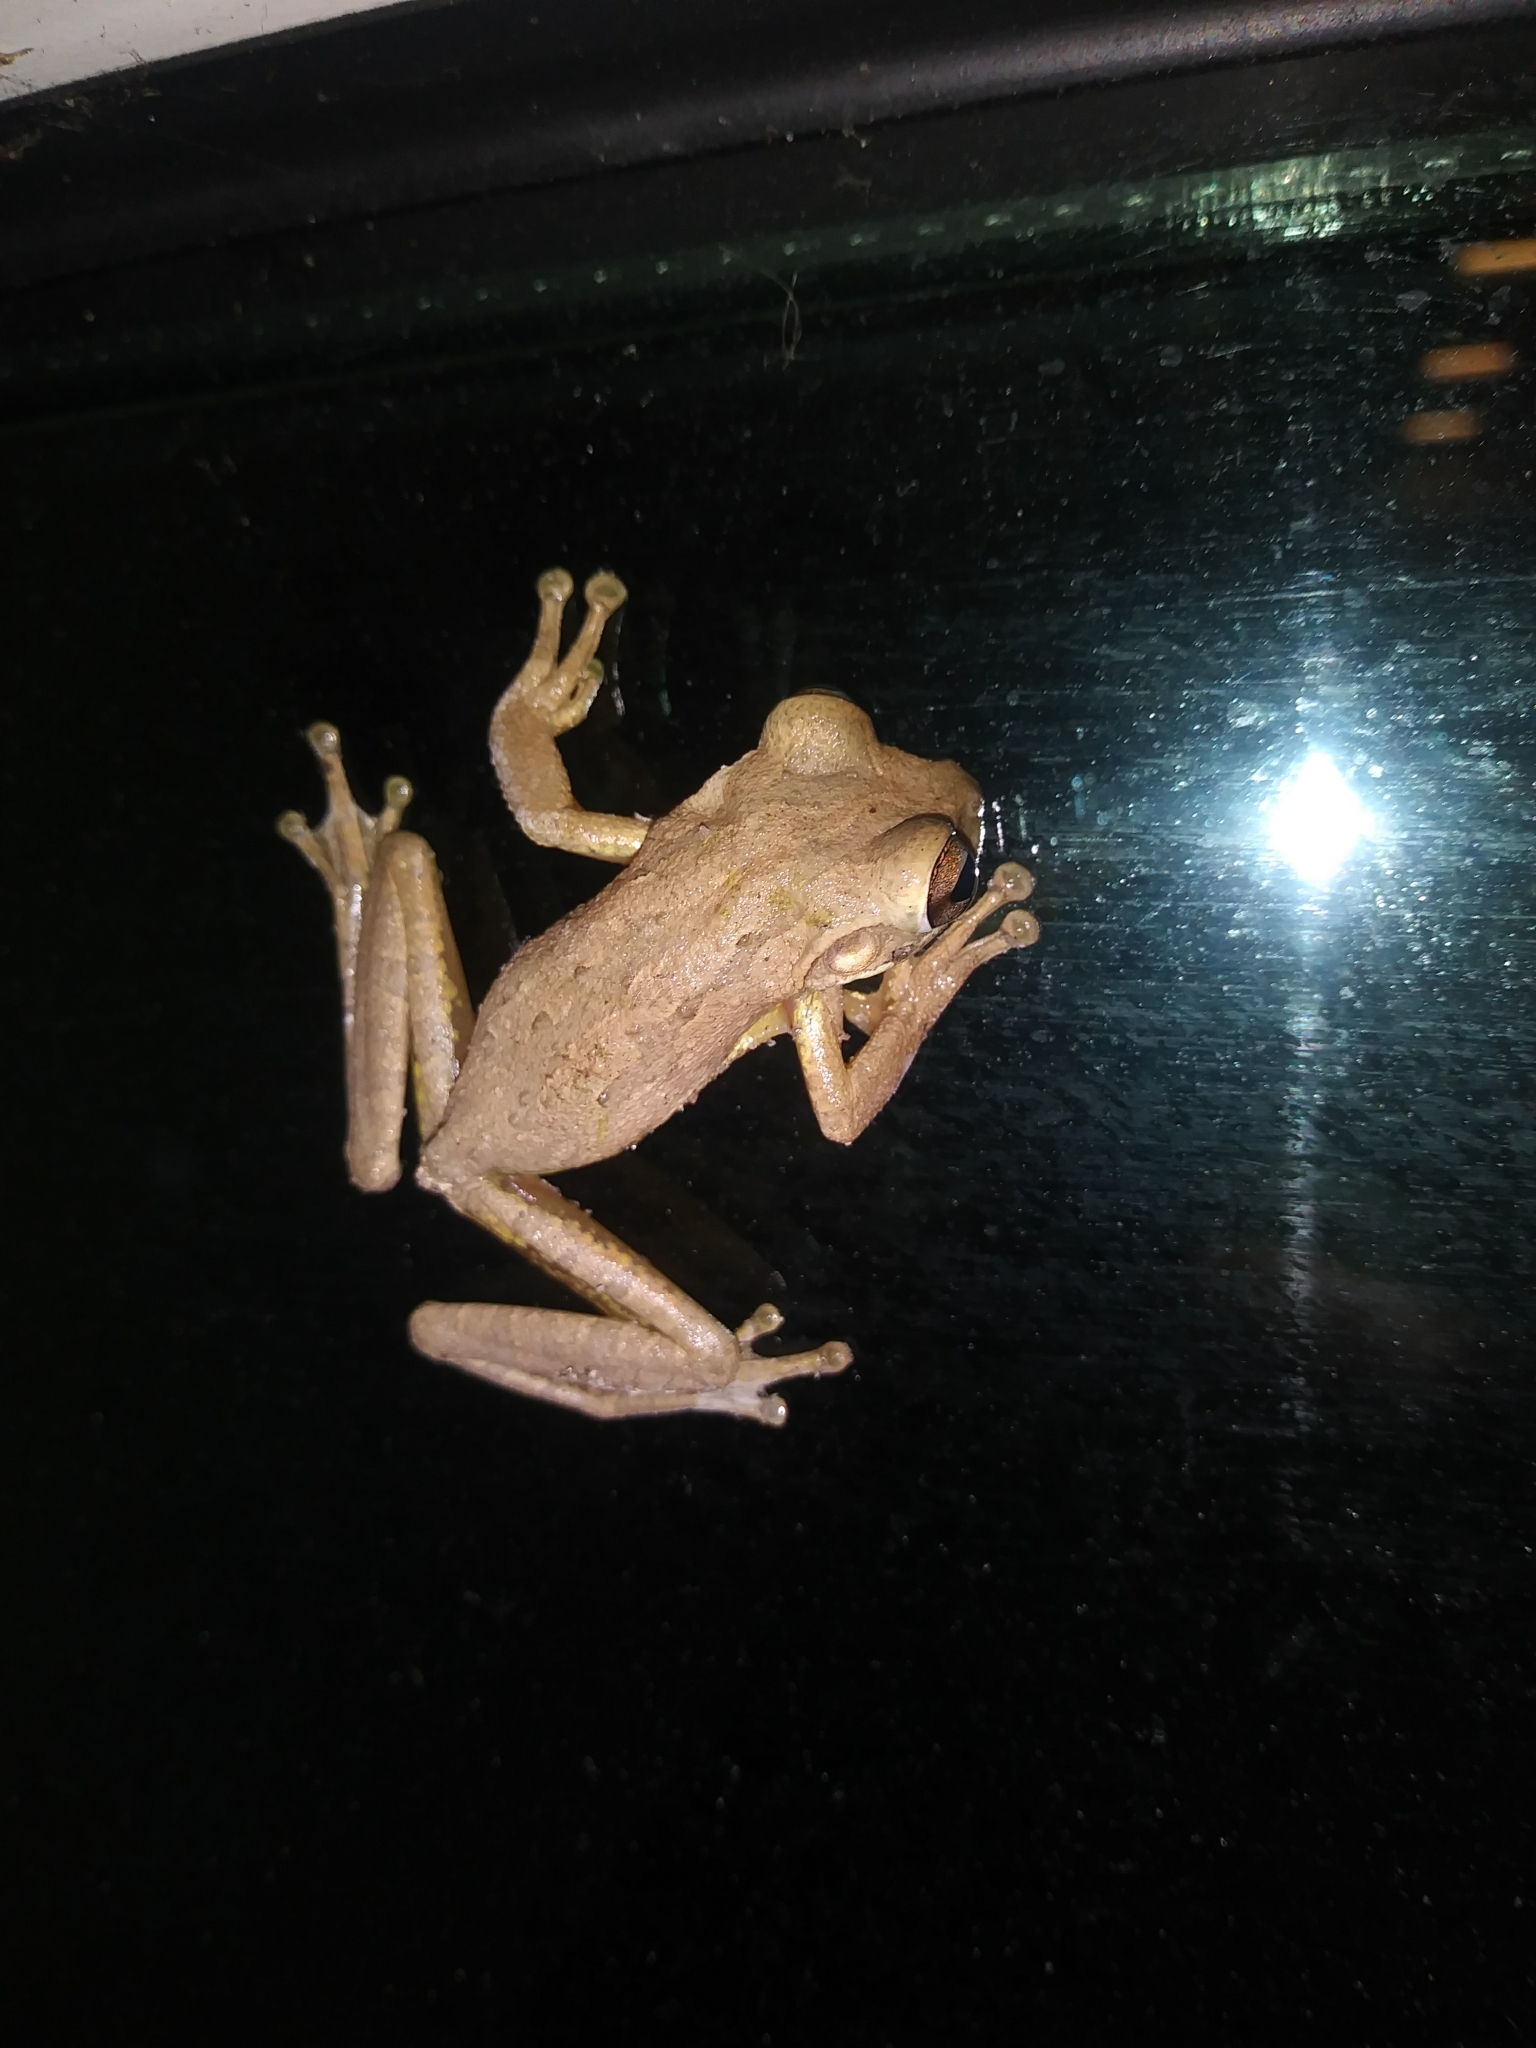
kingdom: Animalia
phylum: Chordata
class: Amphibia
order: Anura
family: Hylidae
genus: Osteopilus
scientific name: Osteopilus septentrionalis
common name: Cuban treefrog
